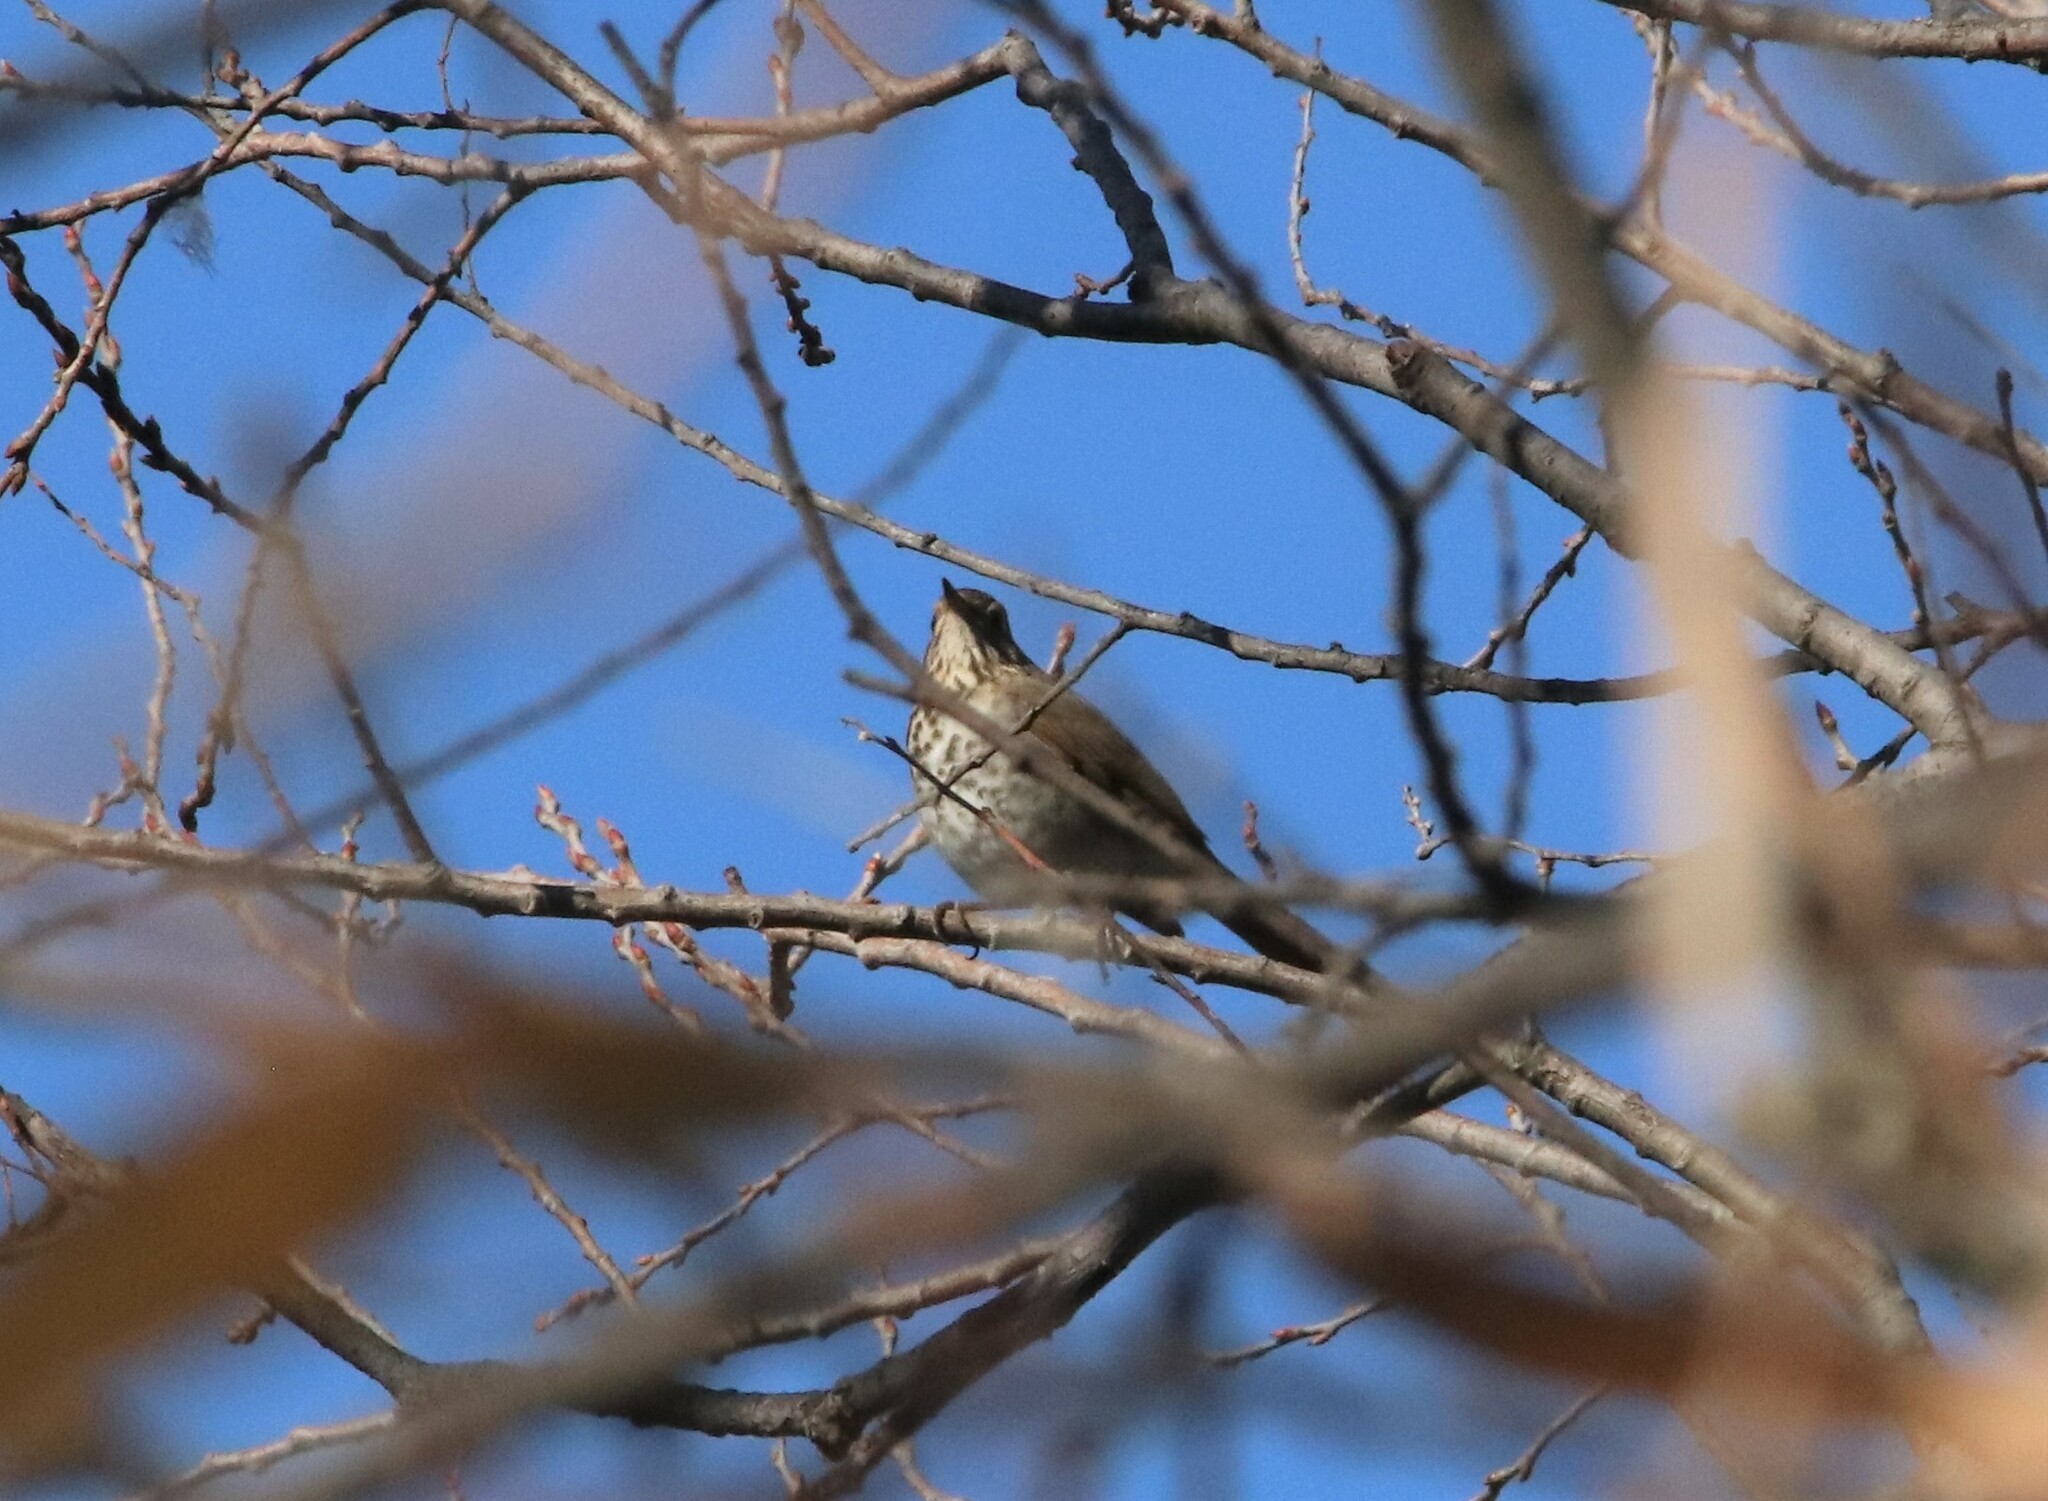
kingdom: Animalia
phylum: Chordata
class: Aves
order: Passeriformes
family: Turdidae
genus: Catharus
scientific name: Catharus guttatus
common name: Hermit thrush
